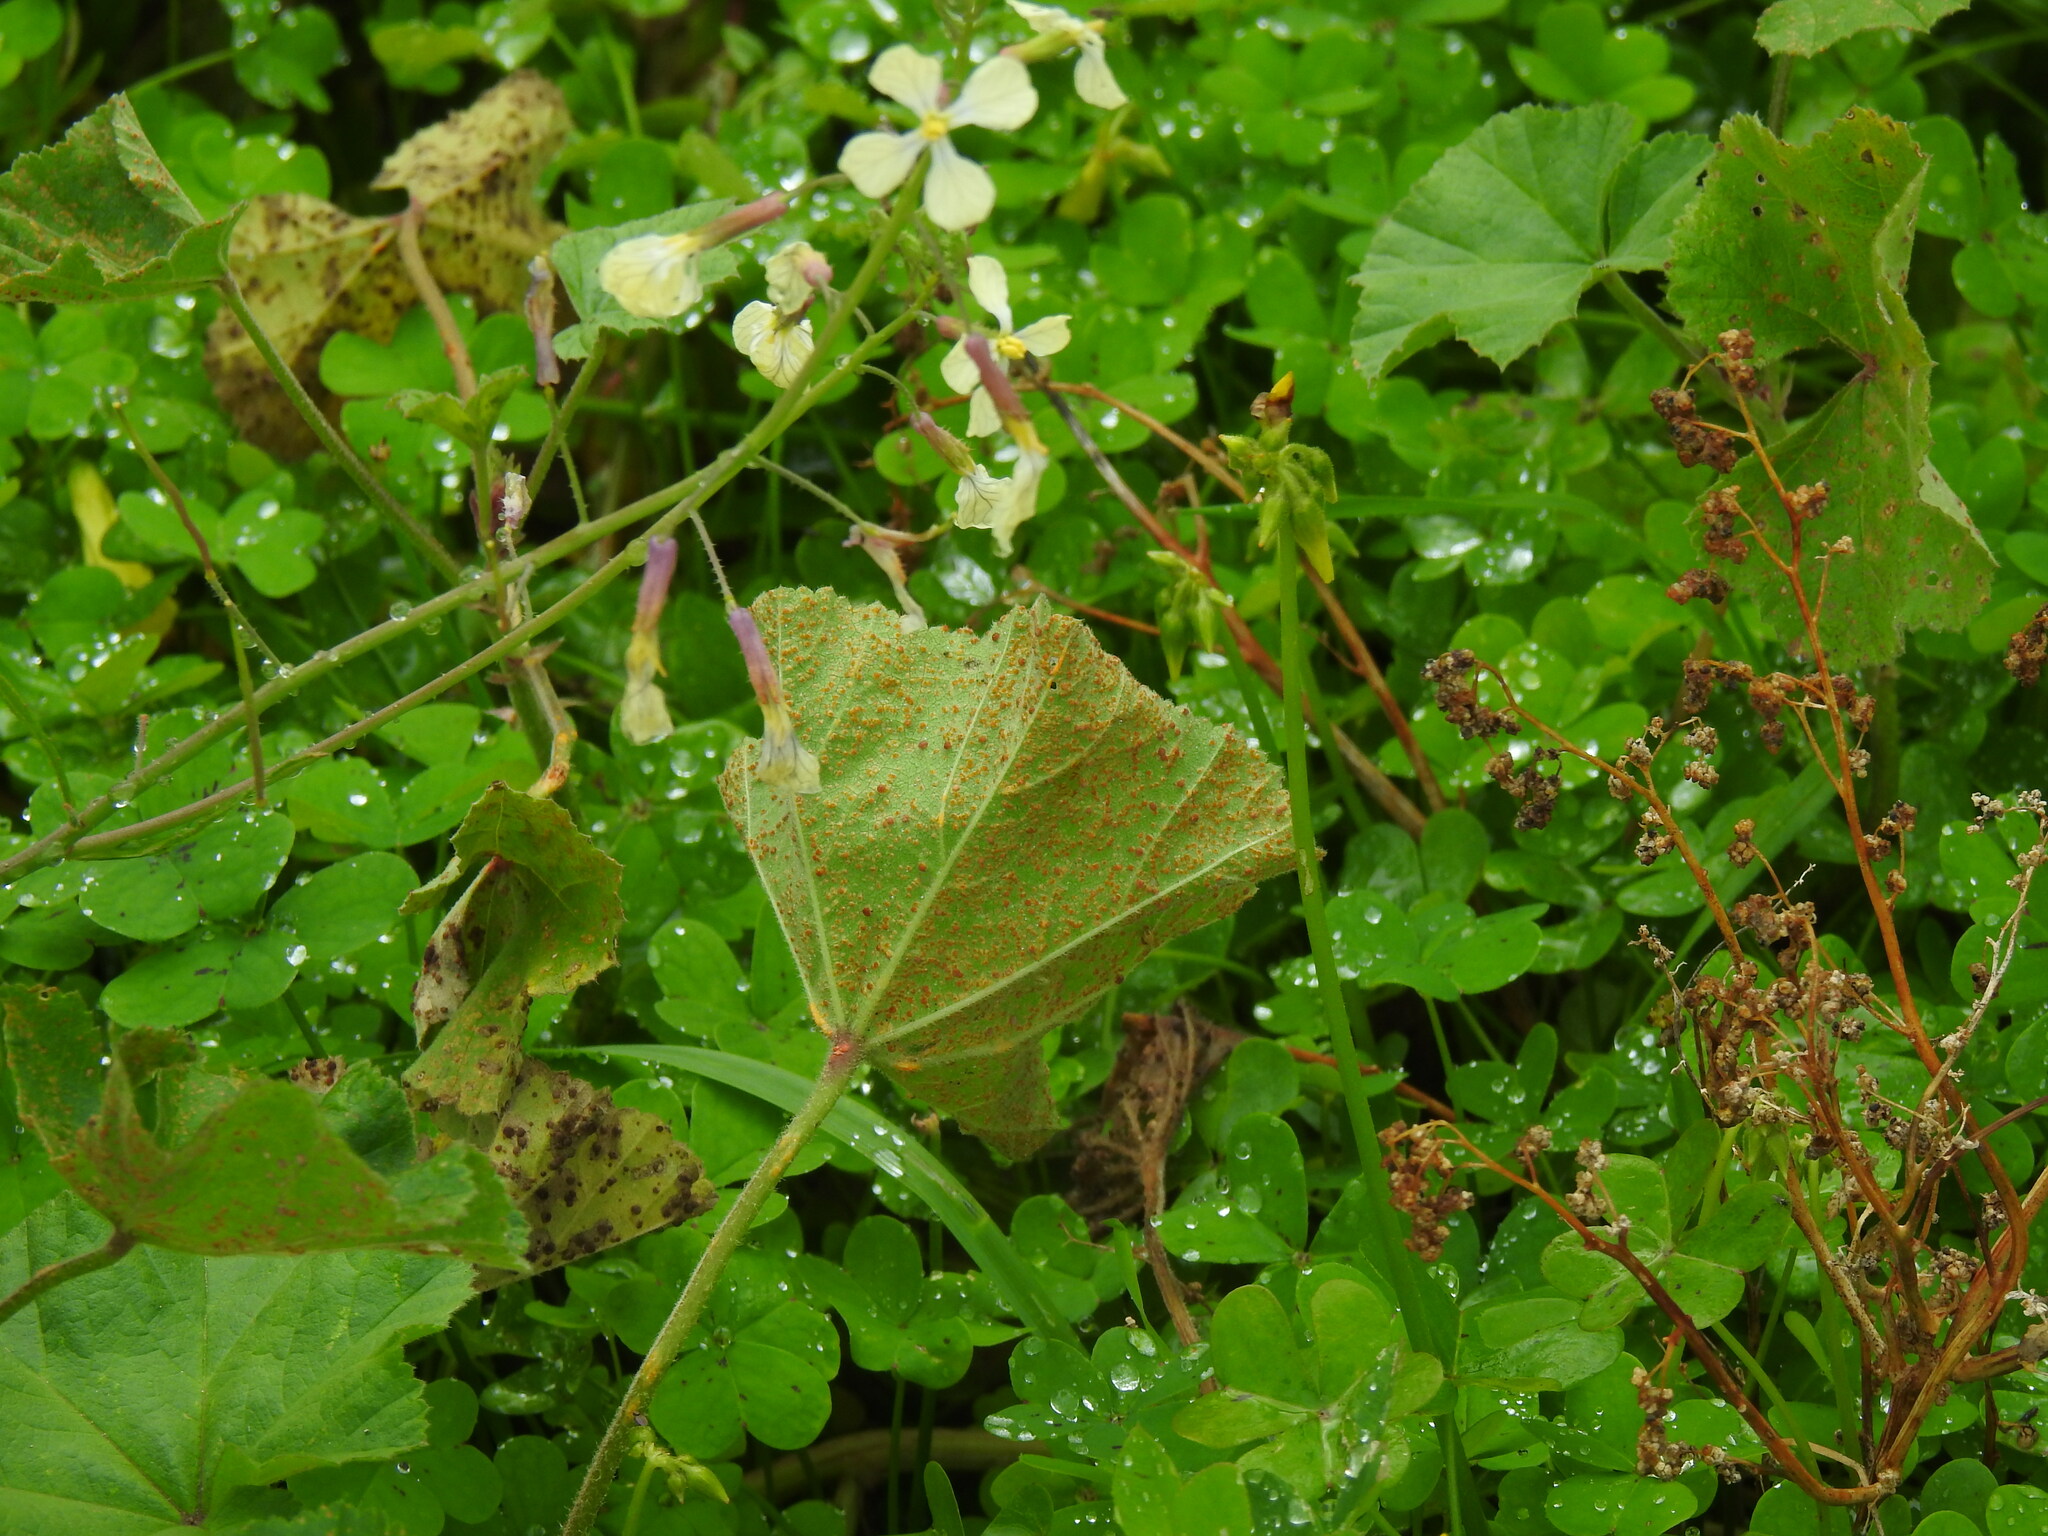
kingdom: Fungi
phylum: Basidiomycota
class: Pucciniomycetes
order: Pucciniales
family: Pucciniaceae
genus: Puccinia
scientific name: Puccinia malvacearum
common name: Hollyhock rust
